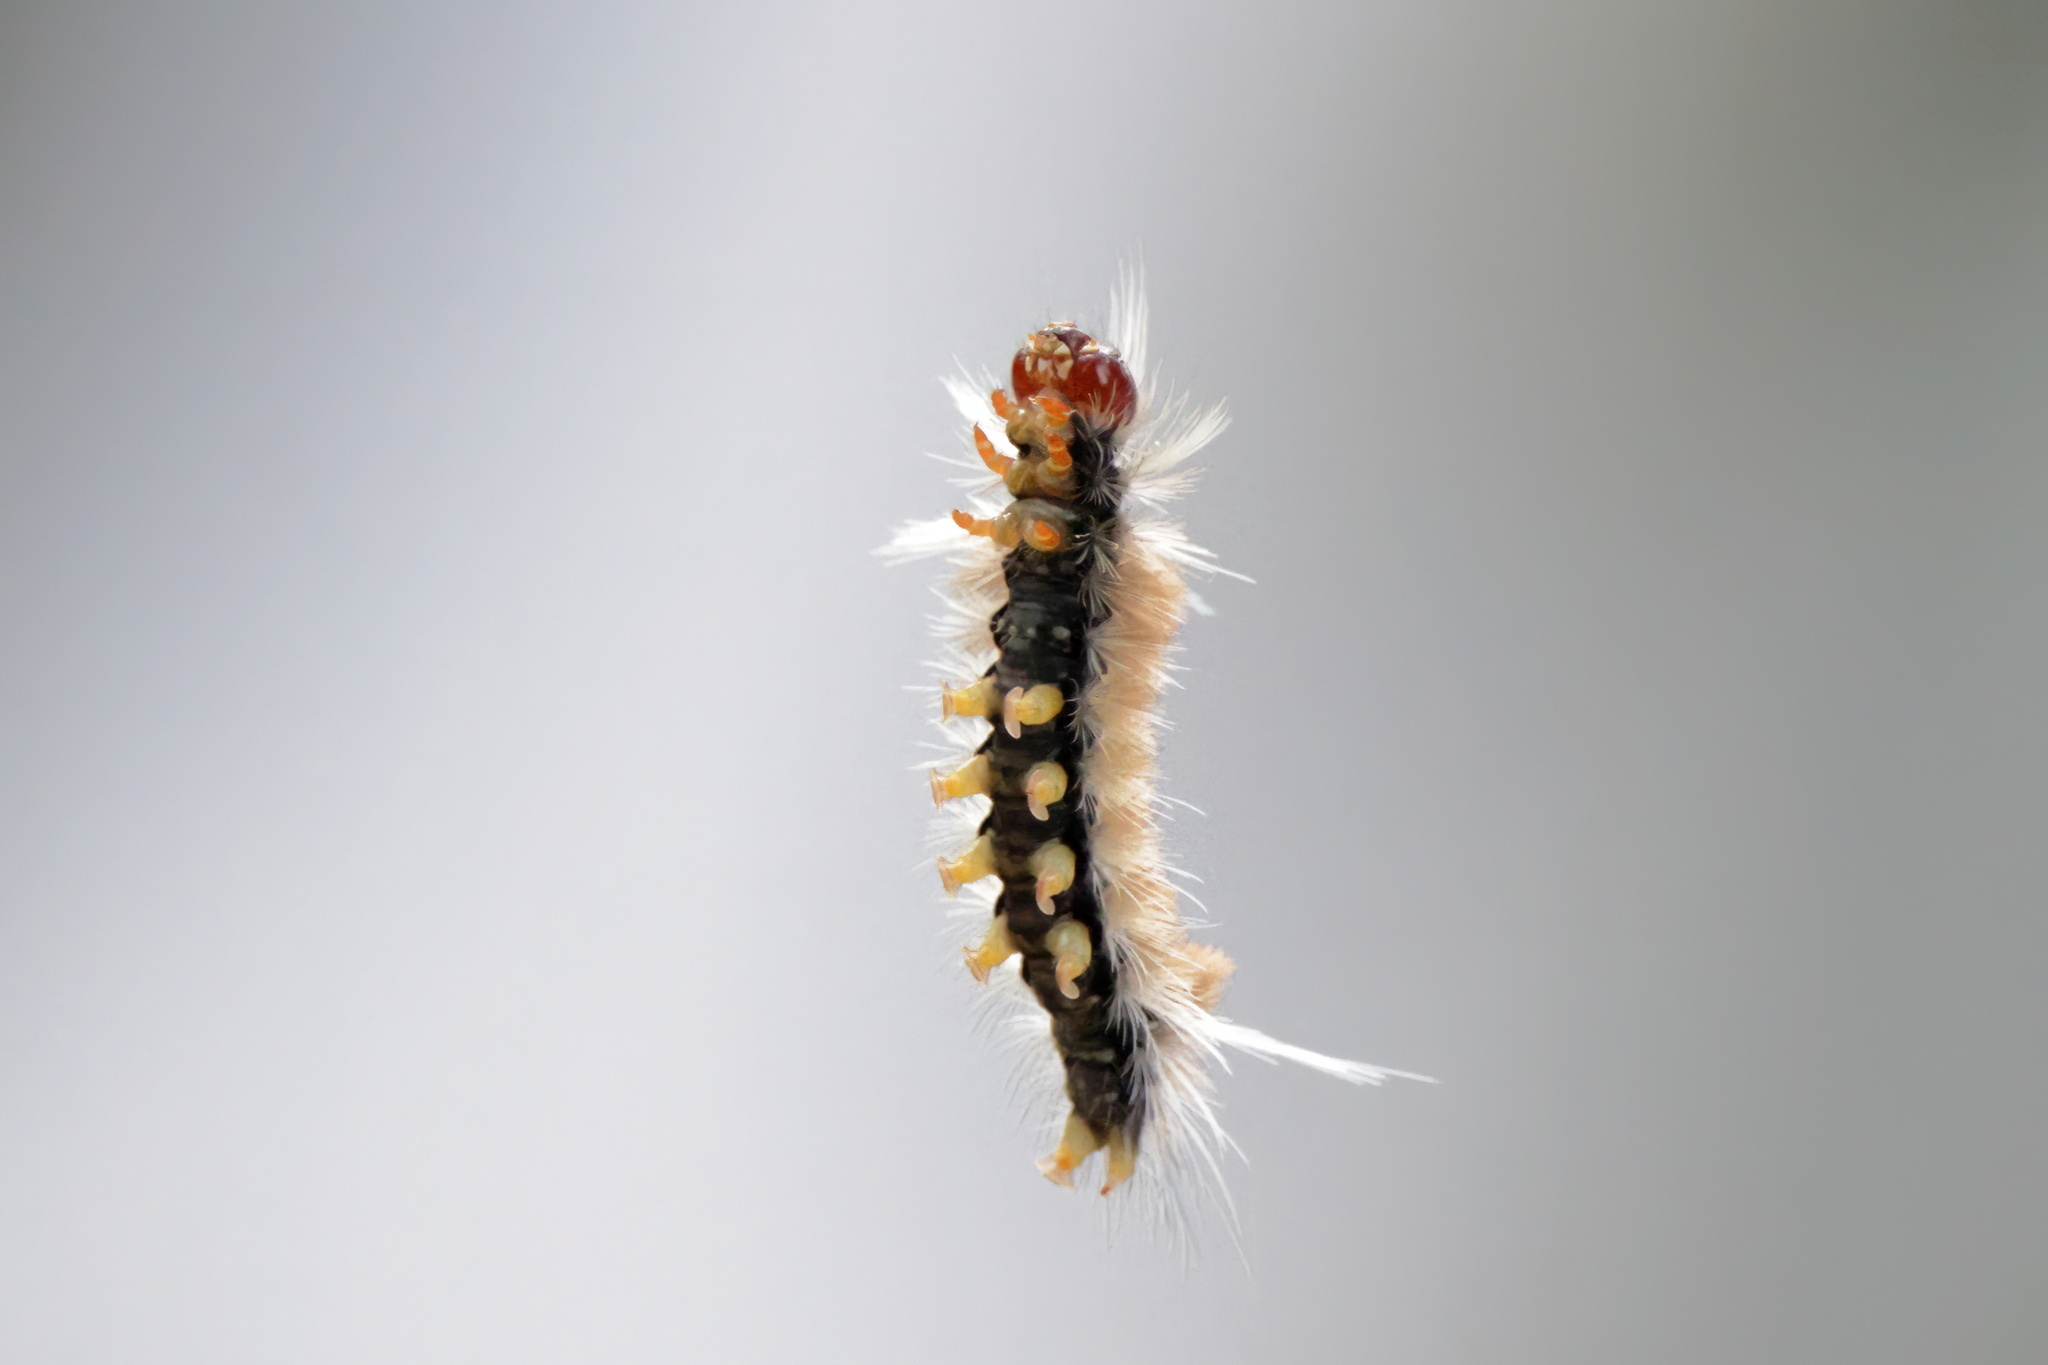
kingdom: Animalia
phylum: Arthropoda
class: Insecta
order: Lepidoptera
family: Erebidae
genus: Halysidota
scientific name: Halysidota schausi
